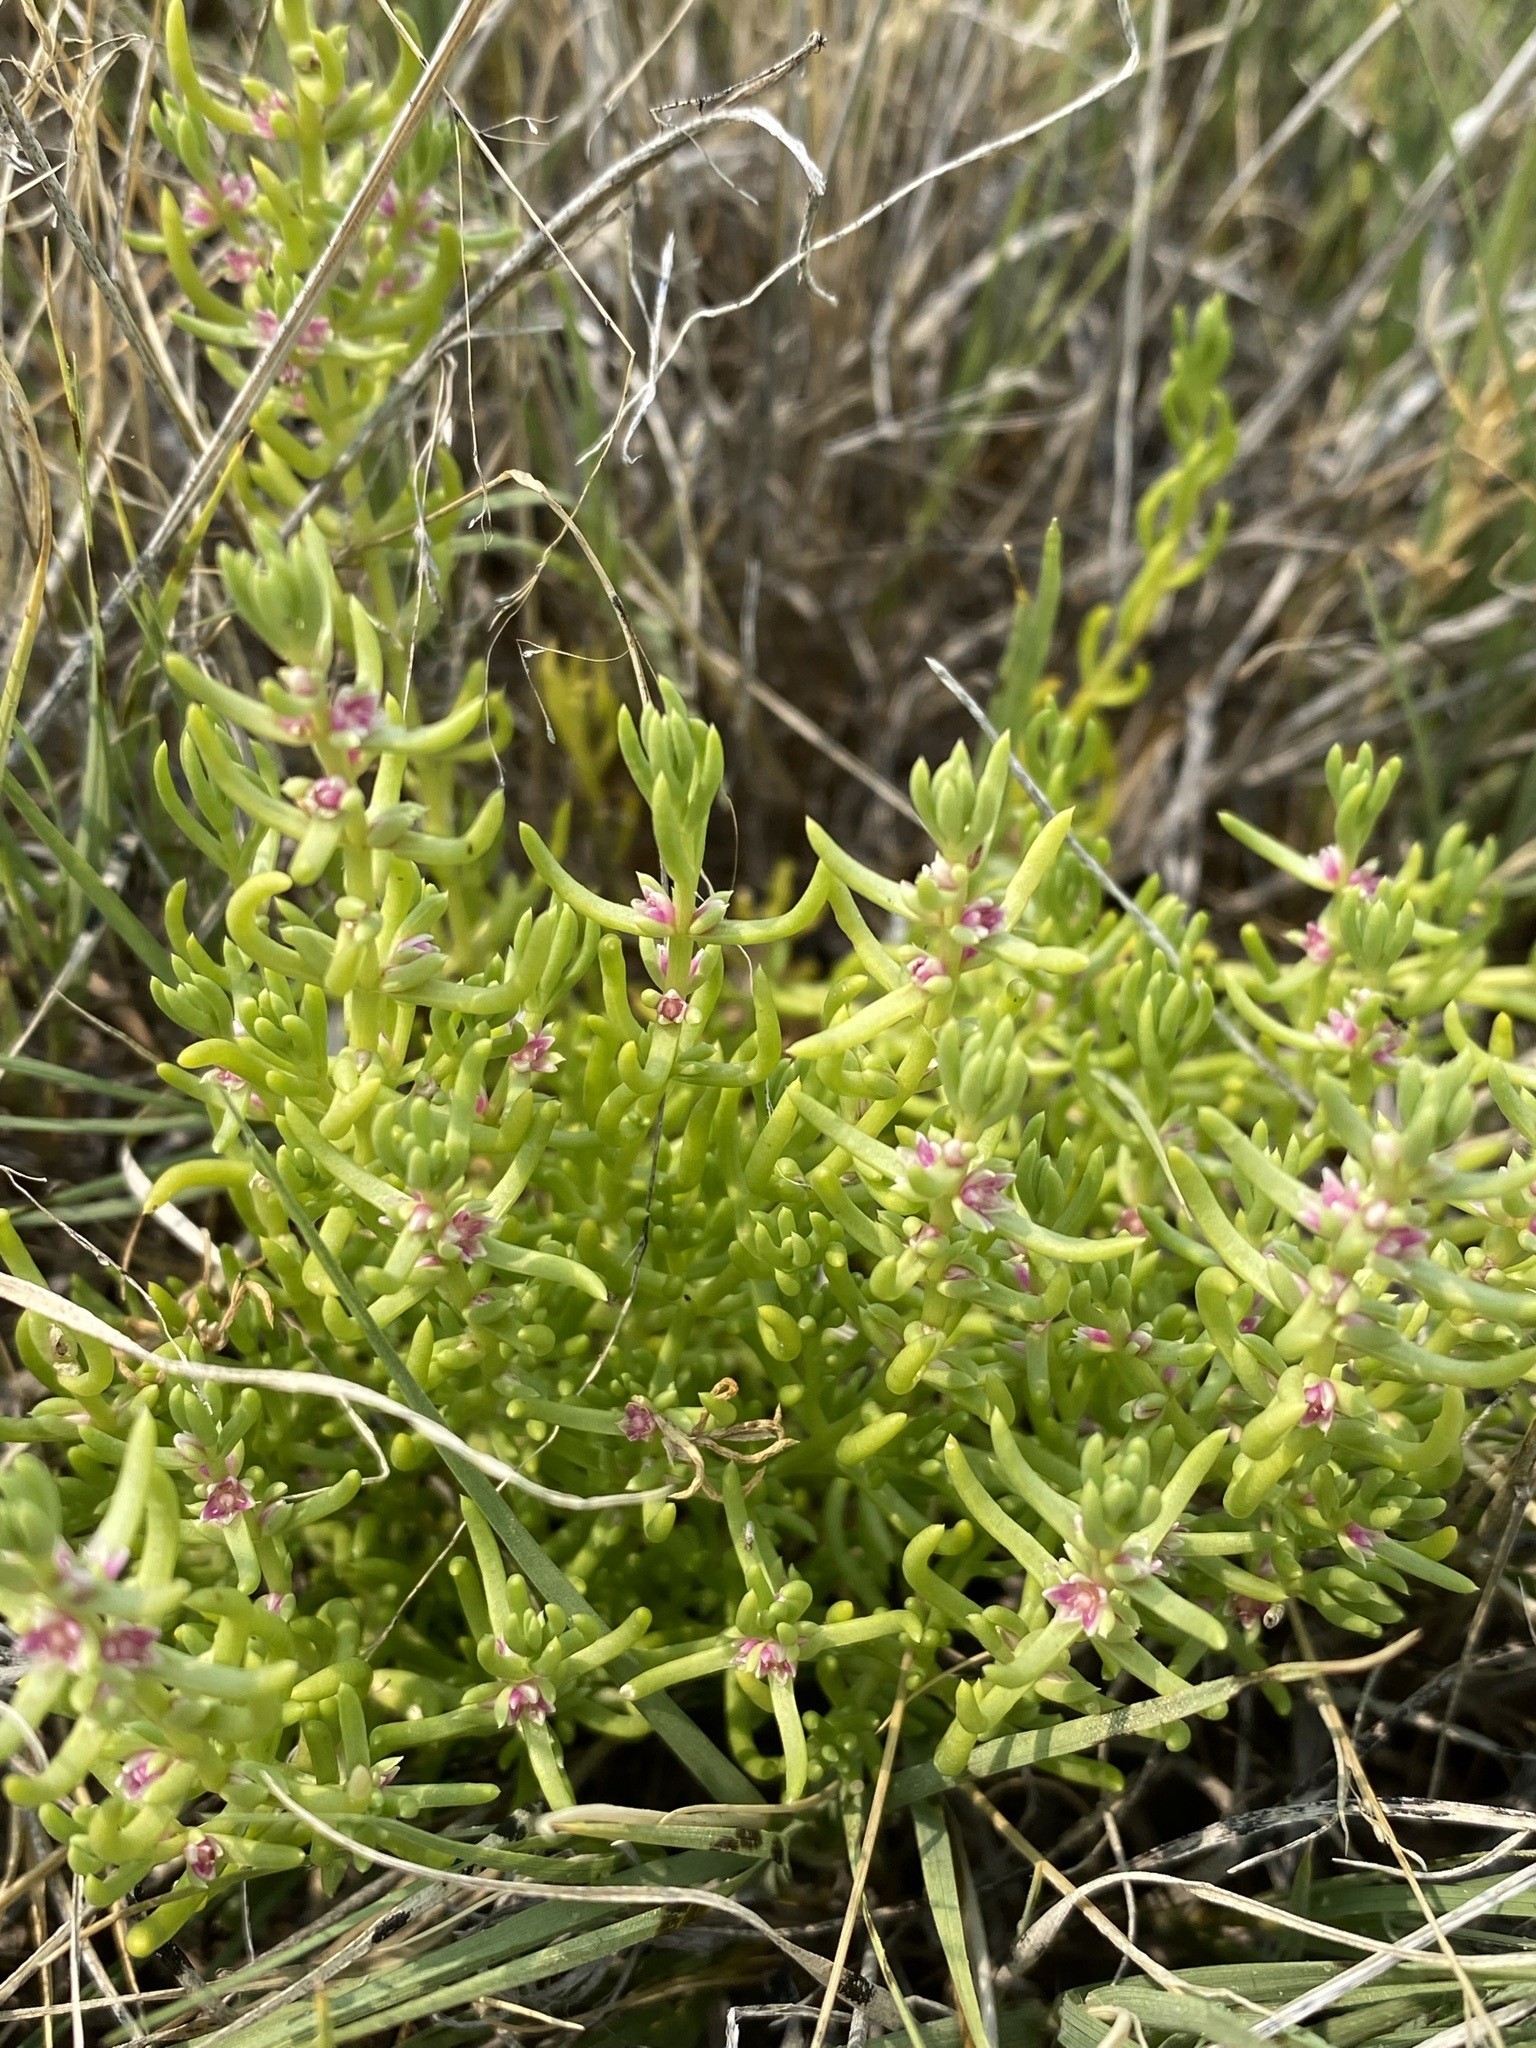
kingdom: Plantae
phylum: Tracheophyta
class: Magnoliopsida
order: Caryophyllales
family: Amaranthaceae
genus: Nitrophila
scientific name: Nitrophila occidentalis
